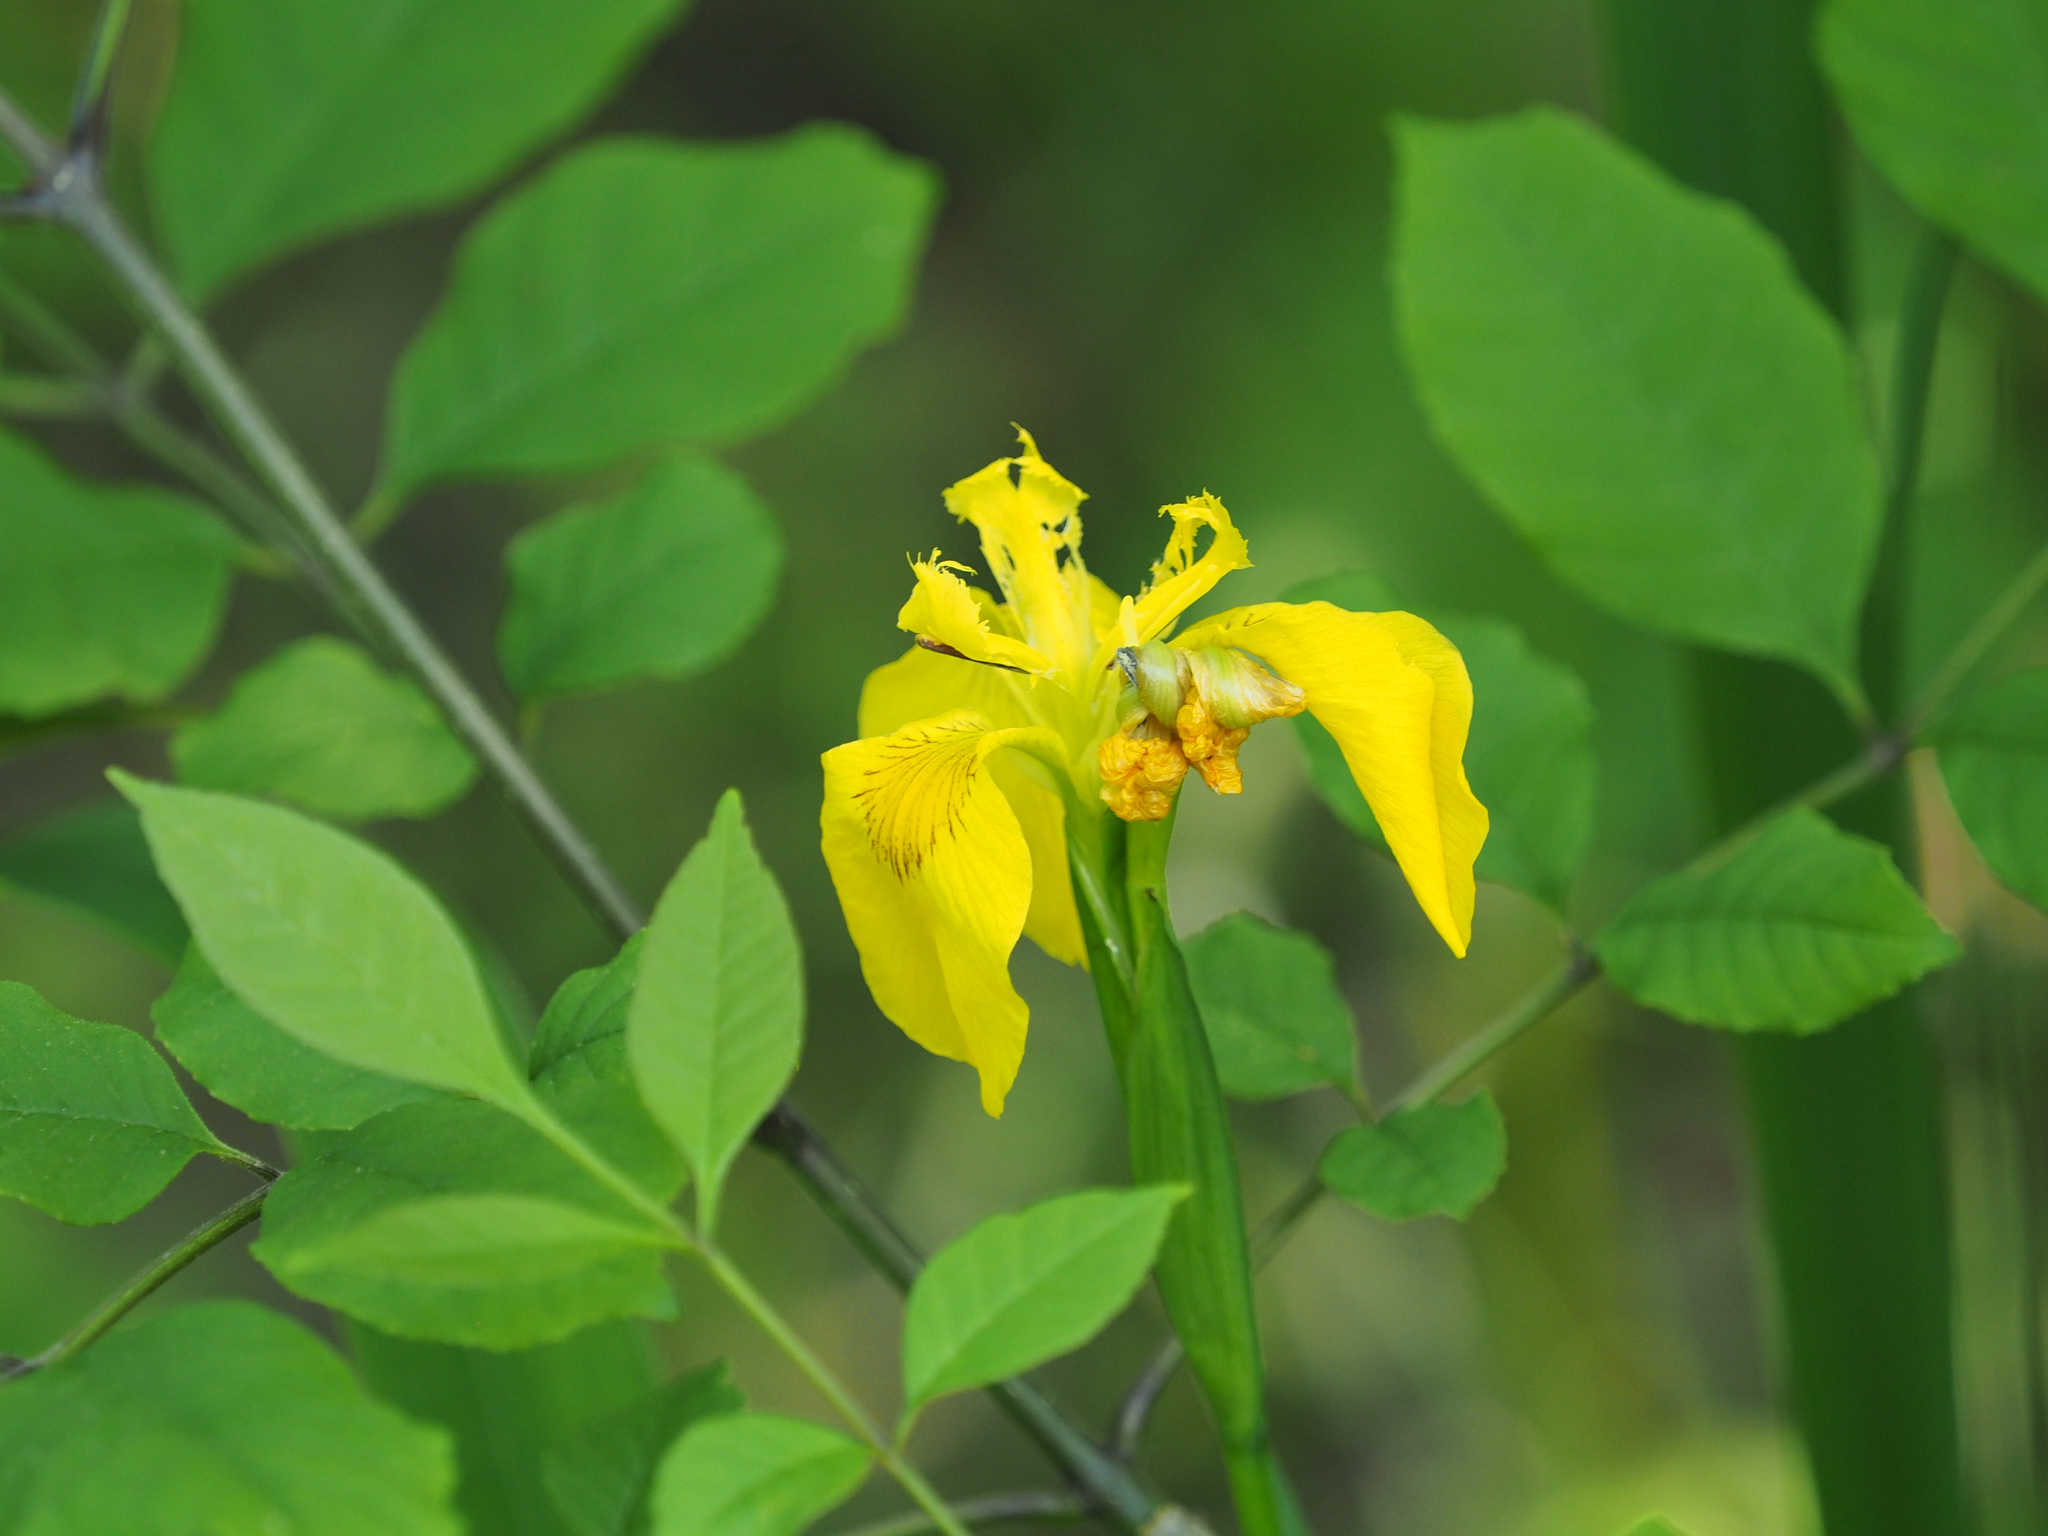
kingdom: Plantae
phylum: Tracheophyta
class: Liliopsida
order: Asparagales
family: Iridaceae
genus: Iris
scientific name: Iris pseudacorus
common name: Yellow flag
